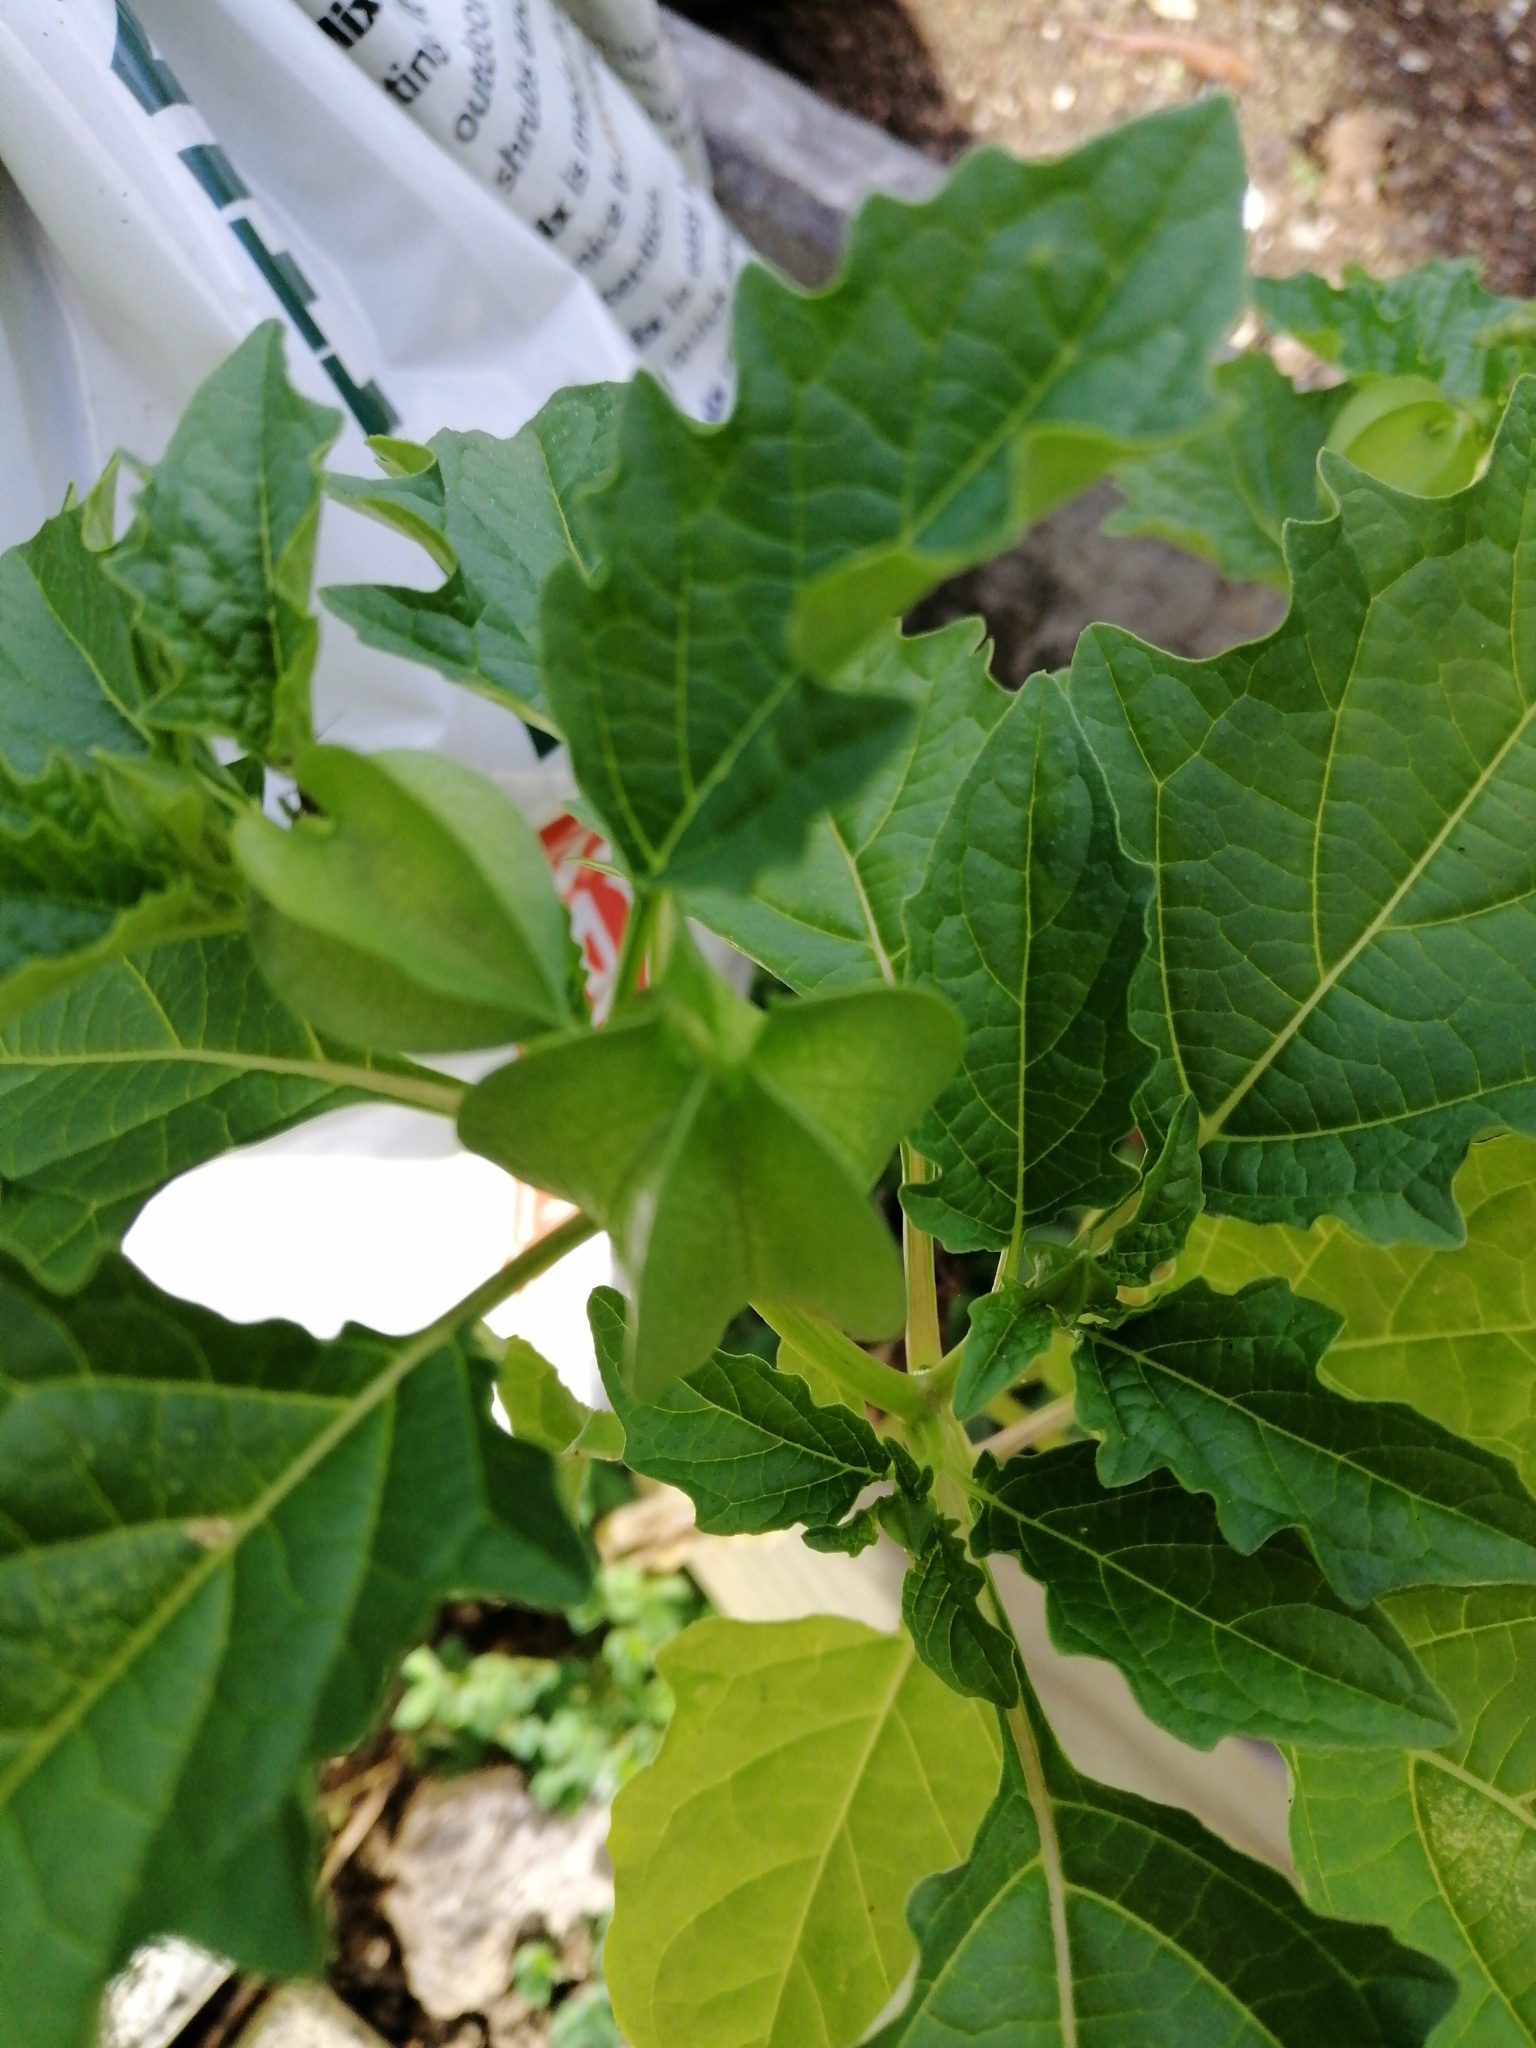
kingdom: Plantae
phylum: Tracheophyta
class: Magnoliopsida
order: Solanales
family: Solanaceae
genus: Nicandra
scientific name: Nicandra physalodes
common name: Apple-of-peru
